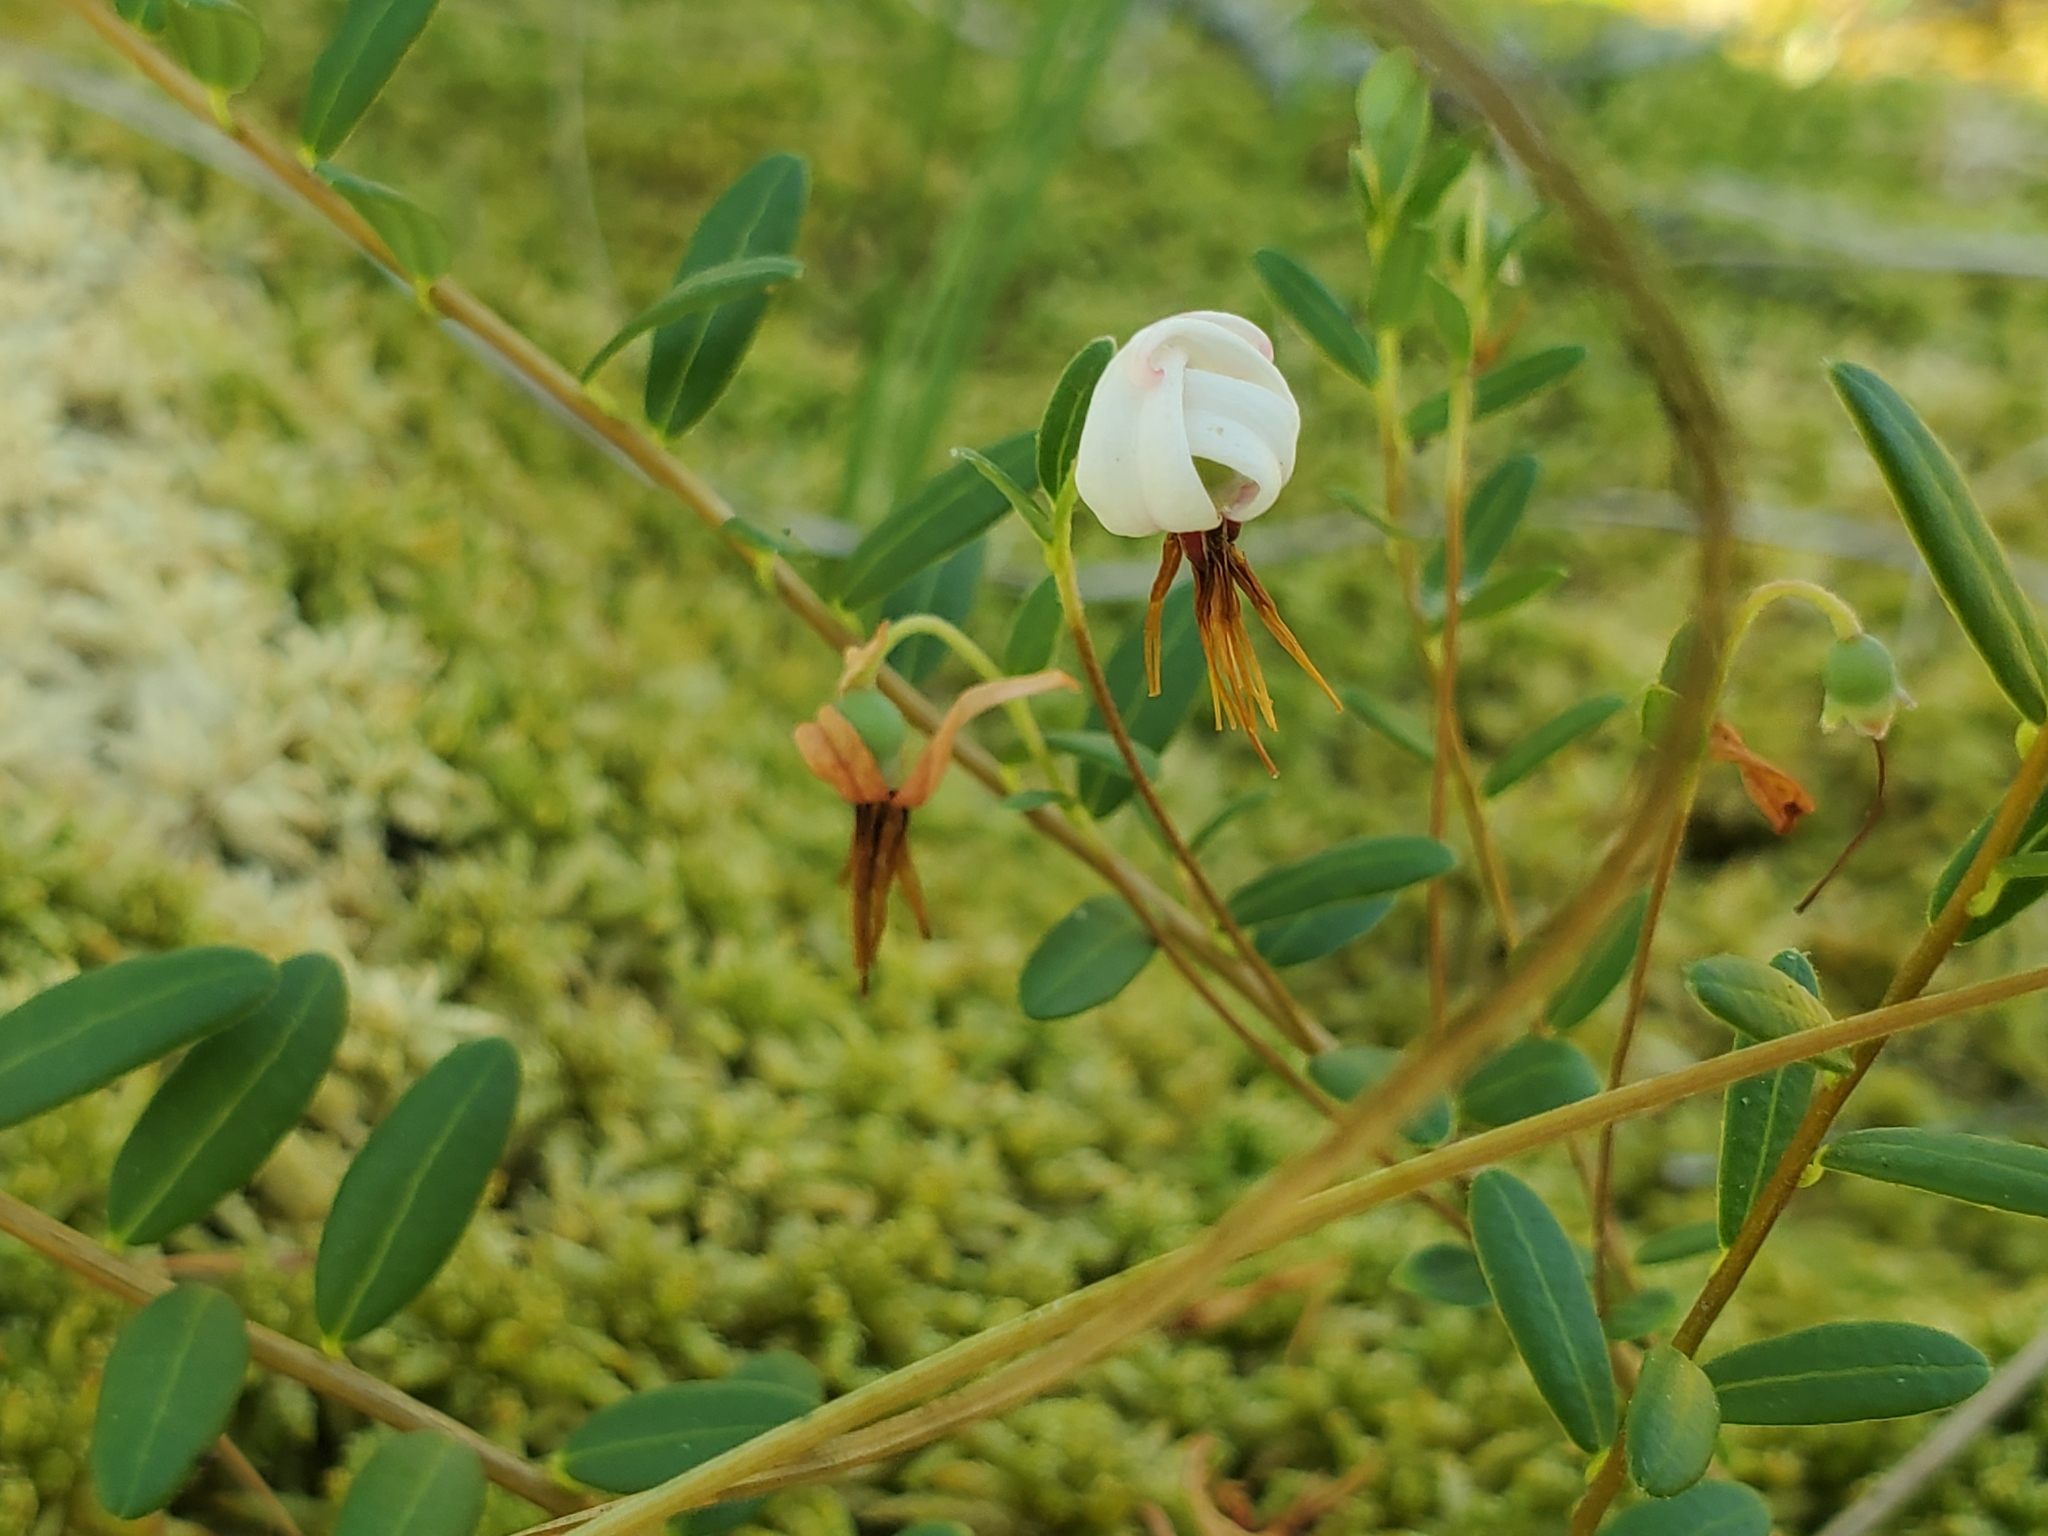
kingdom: Plantae
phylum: Tracheophyta
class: Magnoliopsida
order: Ericales
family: Ericaceae
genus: Vaccinium
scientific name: Vaccinium macrocarpon
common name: American cranberry
